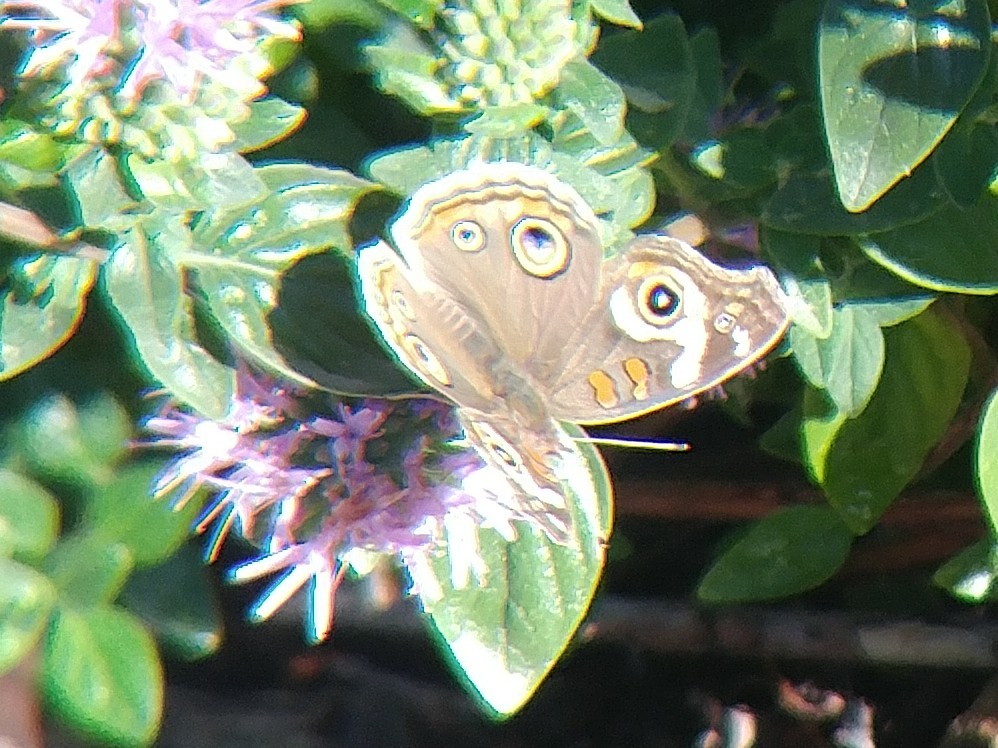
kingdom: Animalia
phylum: Arthropoda
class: Insecta
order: Lepidoptera
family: Nymphalidae
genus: Junonia
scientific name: Junonia grisea
